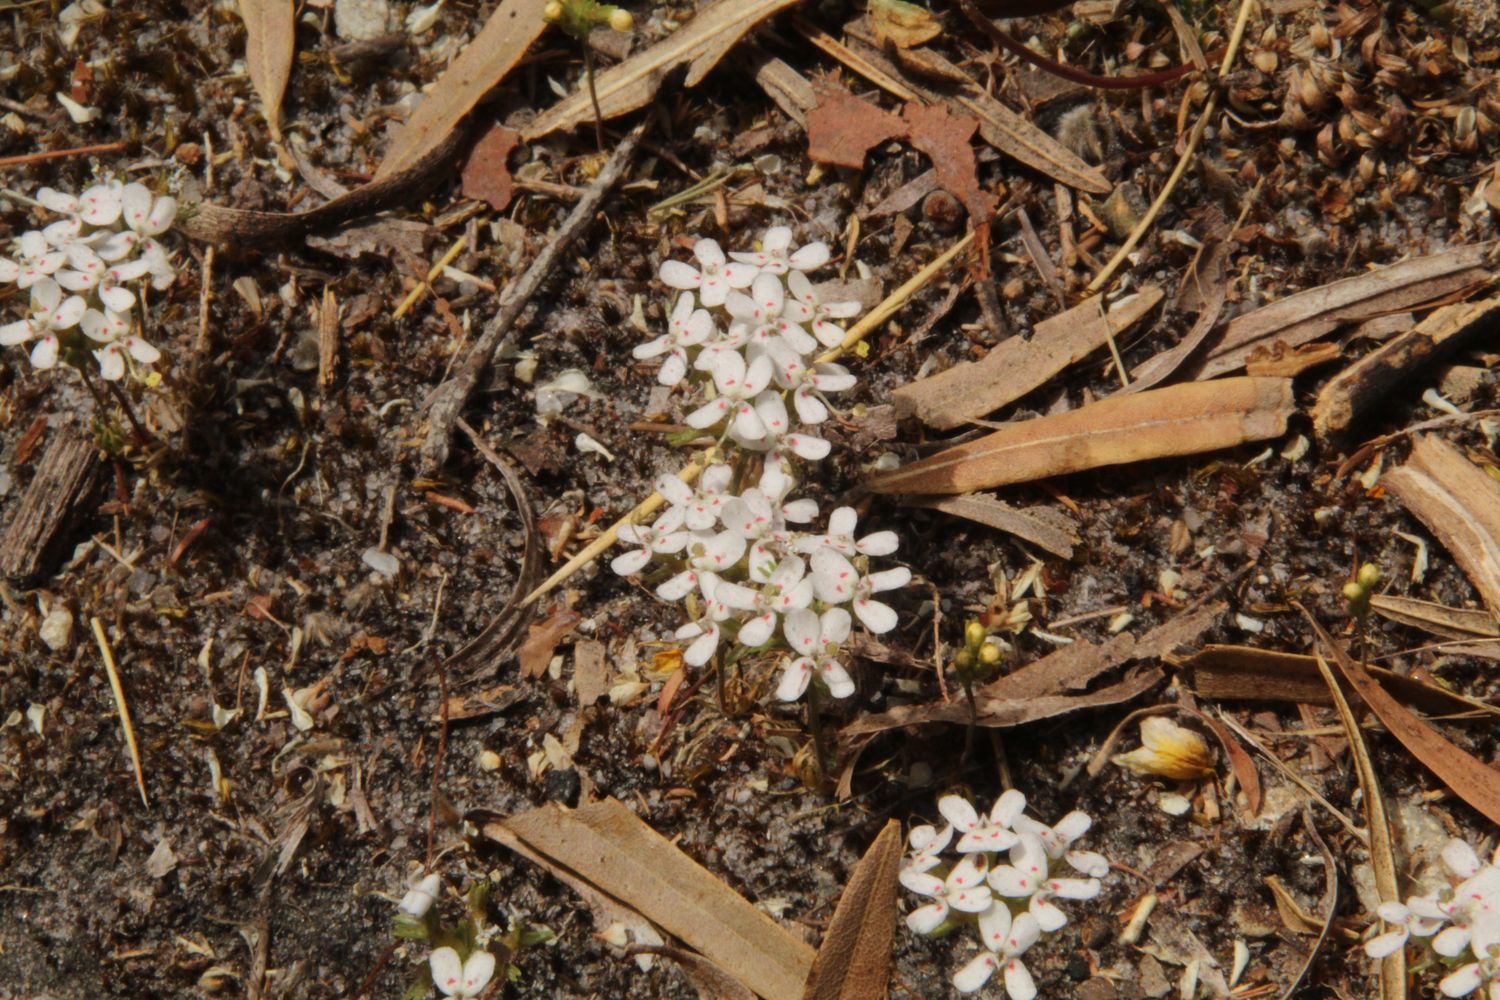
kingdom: Plantae
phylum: Tracheophyta
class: Magnoliopsida
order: Asterales
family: Stylidiaceae
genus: Stylidium
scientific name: Stylidium guttatum
